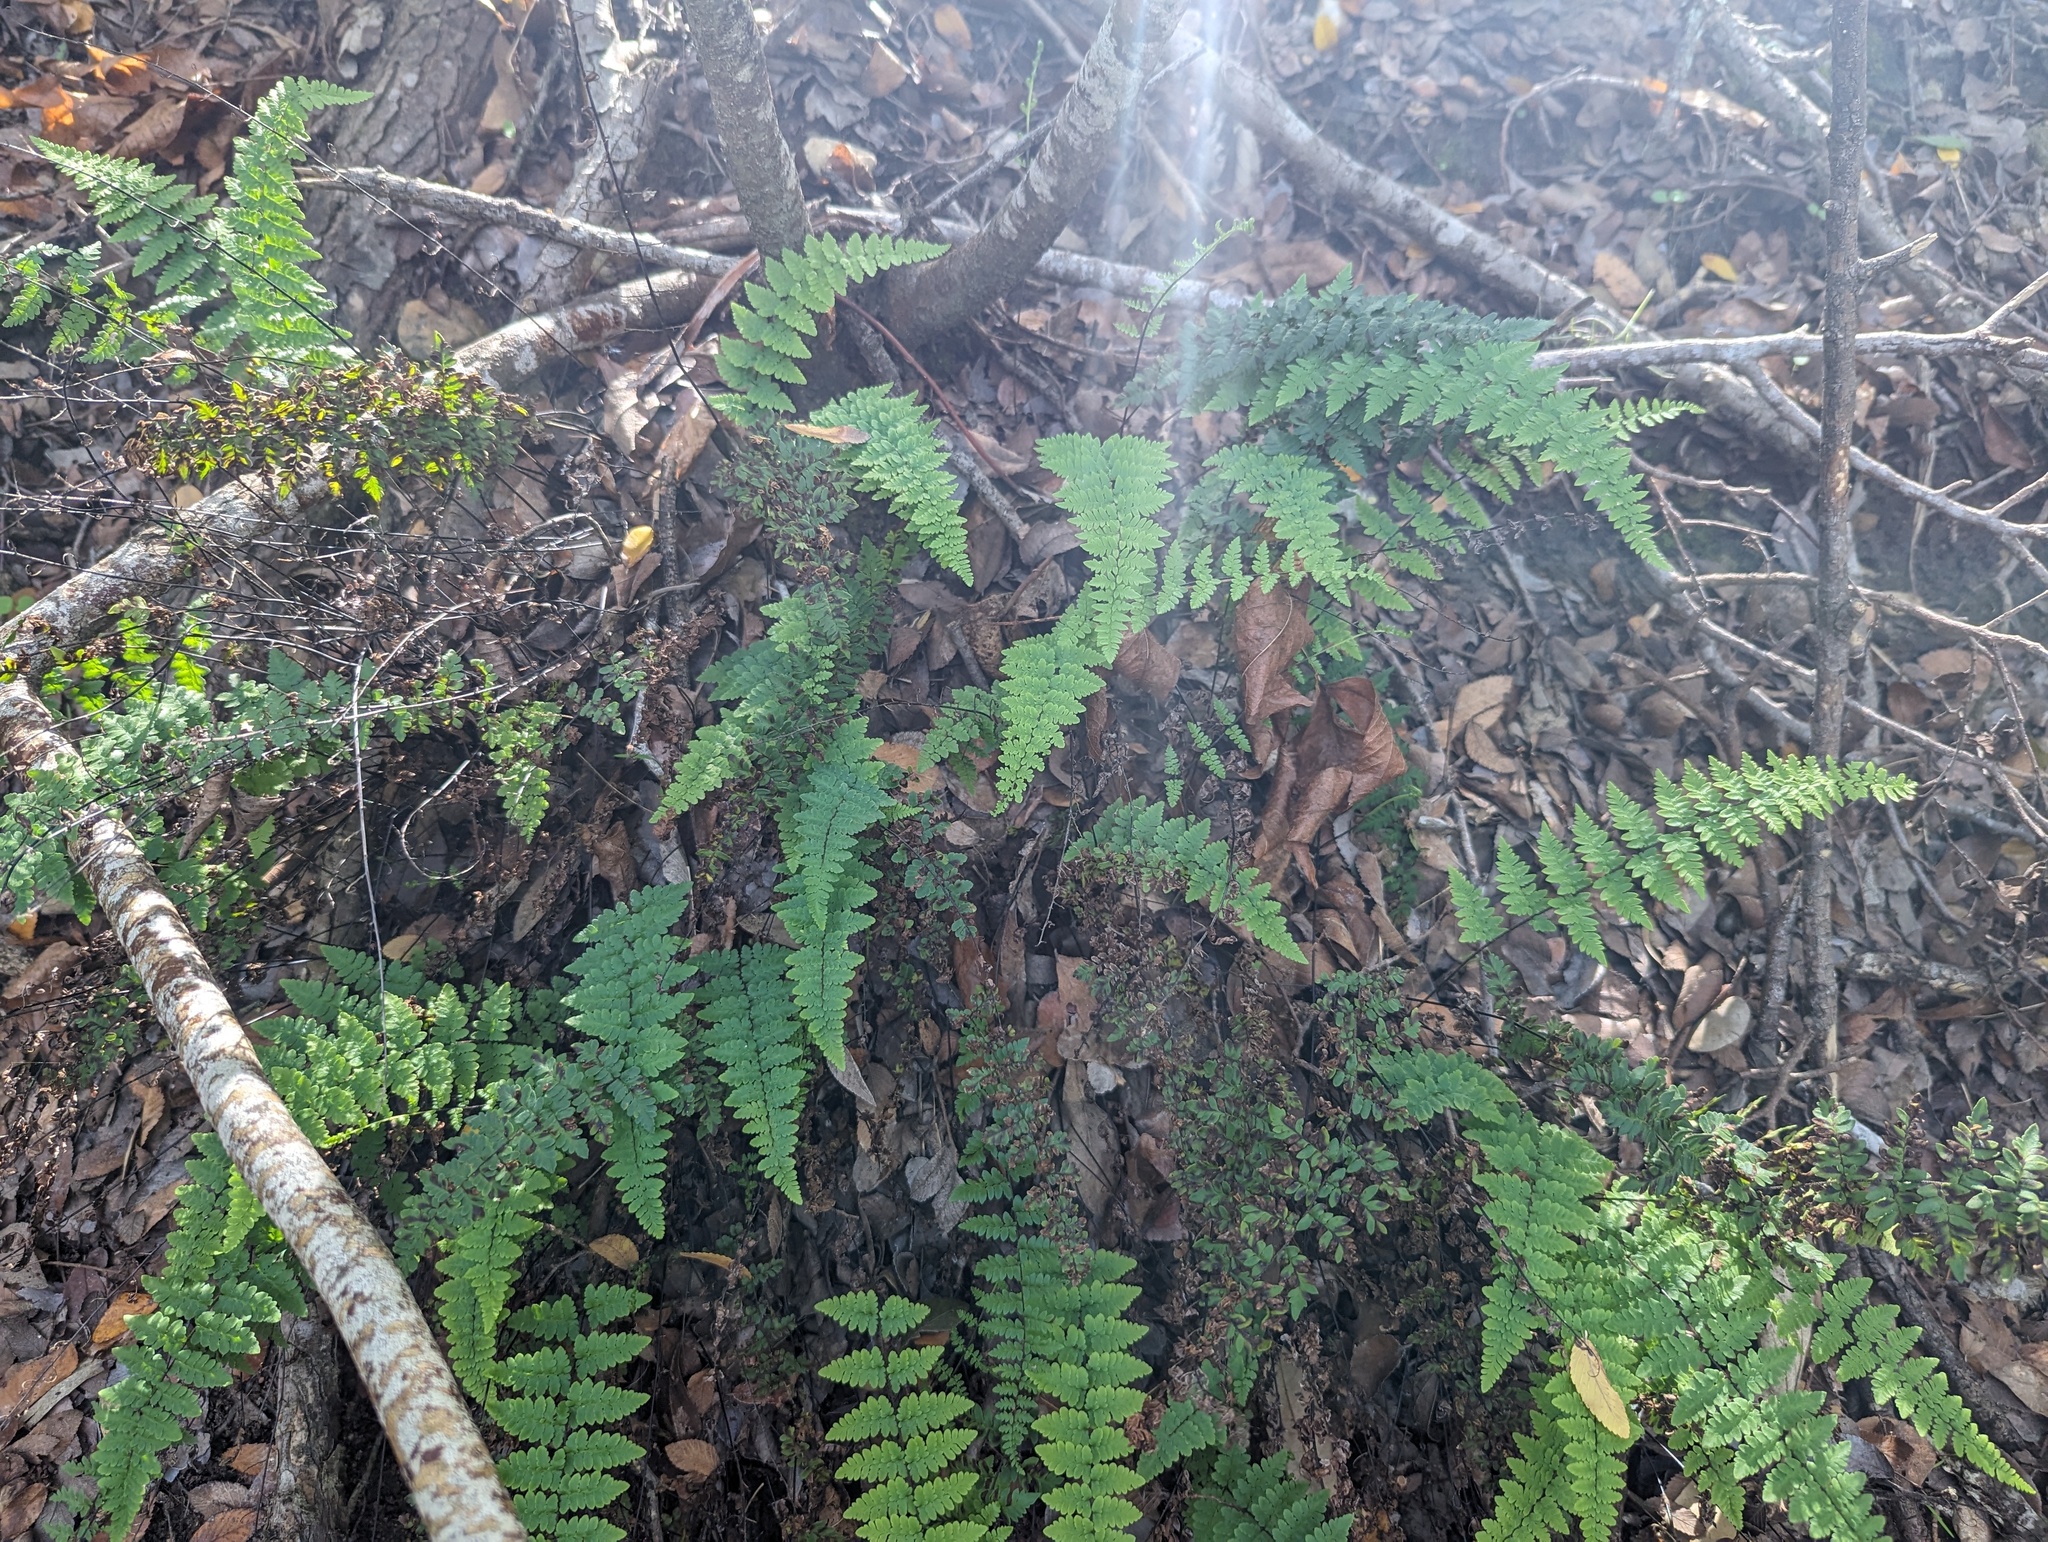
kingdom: Plantae
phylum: Tracheophyta
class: Polypodiopsida
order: Polypodiales
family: Pteridaceae
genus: Myriopteris
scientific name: Myriopteris alabamensis
